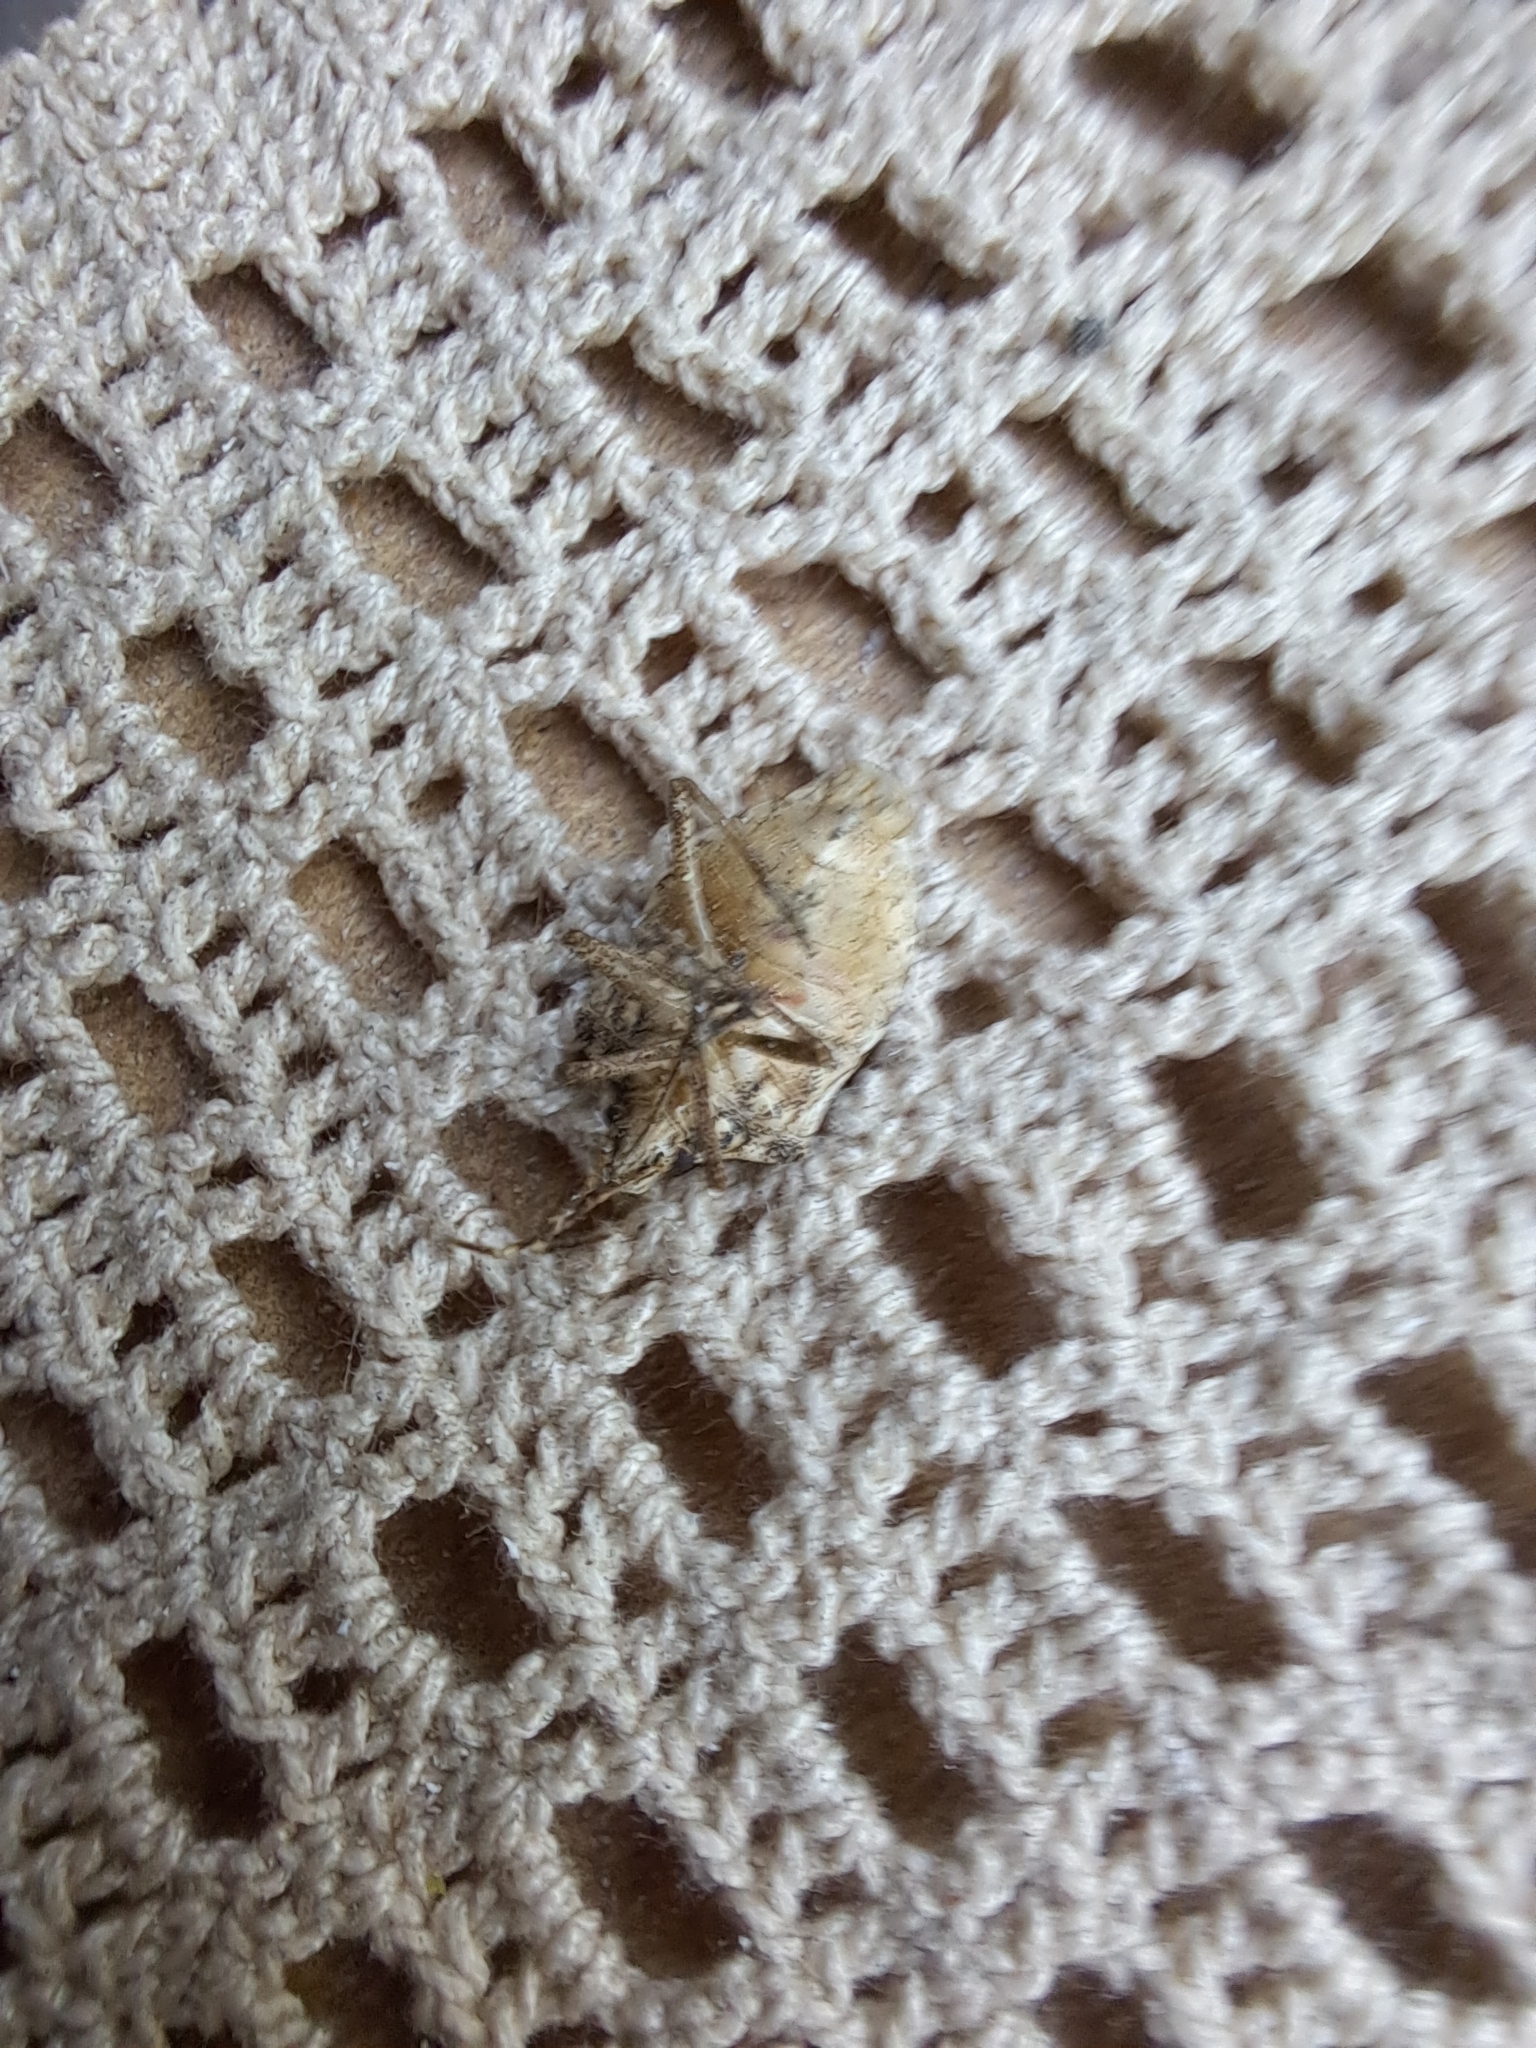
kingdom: Animalia
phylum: Arthropoda
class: Insecta
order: Hemiptera
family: Pentatomidae
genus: Halyomorpha
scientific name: Halyomorpha halys
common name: Brown marmorated stink bug
